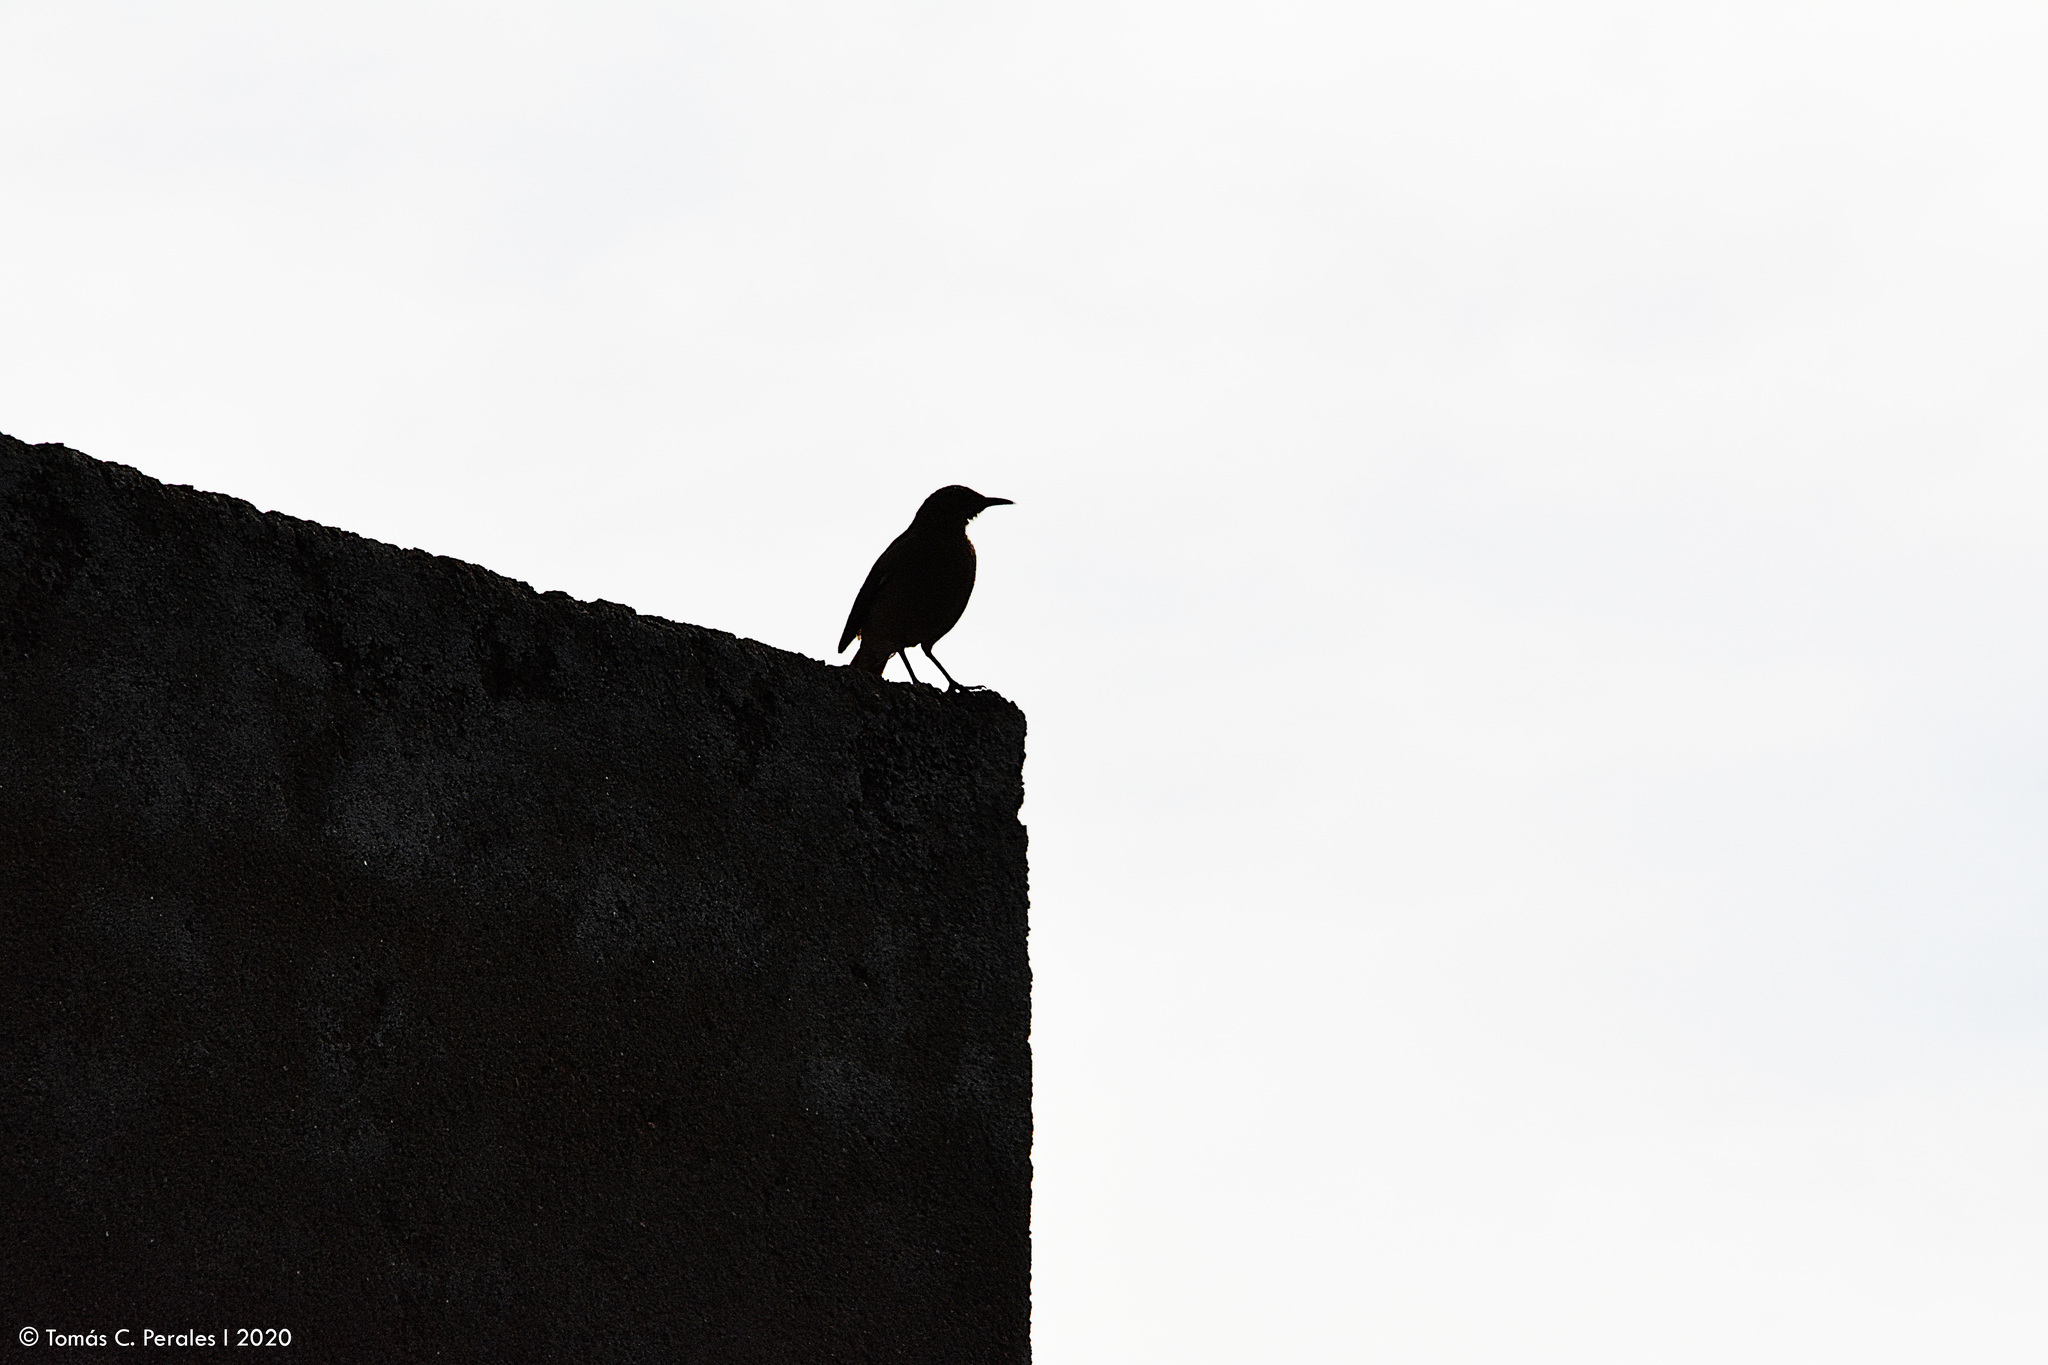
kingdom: Animalia
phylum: Chordata
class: Aves
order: Passeriformes
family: Furnariidae
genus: Furnarius
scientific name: Furnarius rufus
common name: Rufous hornero
